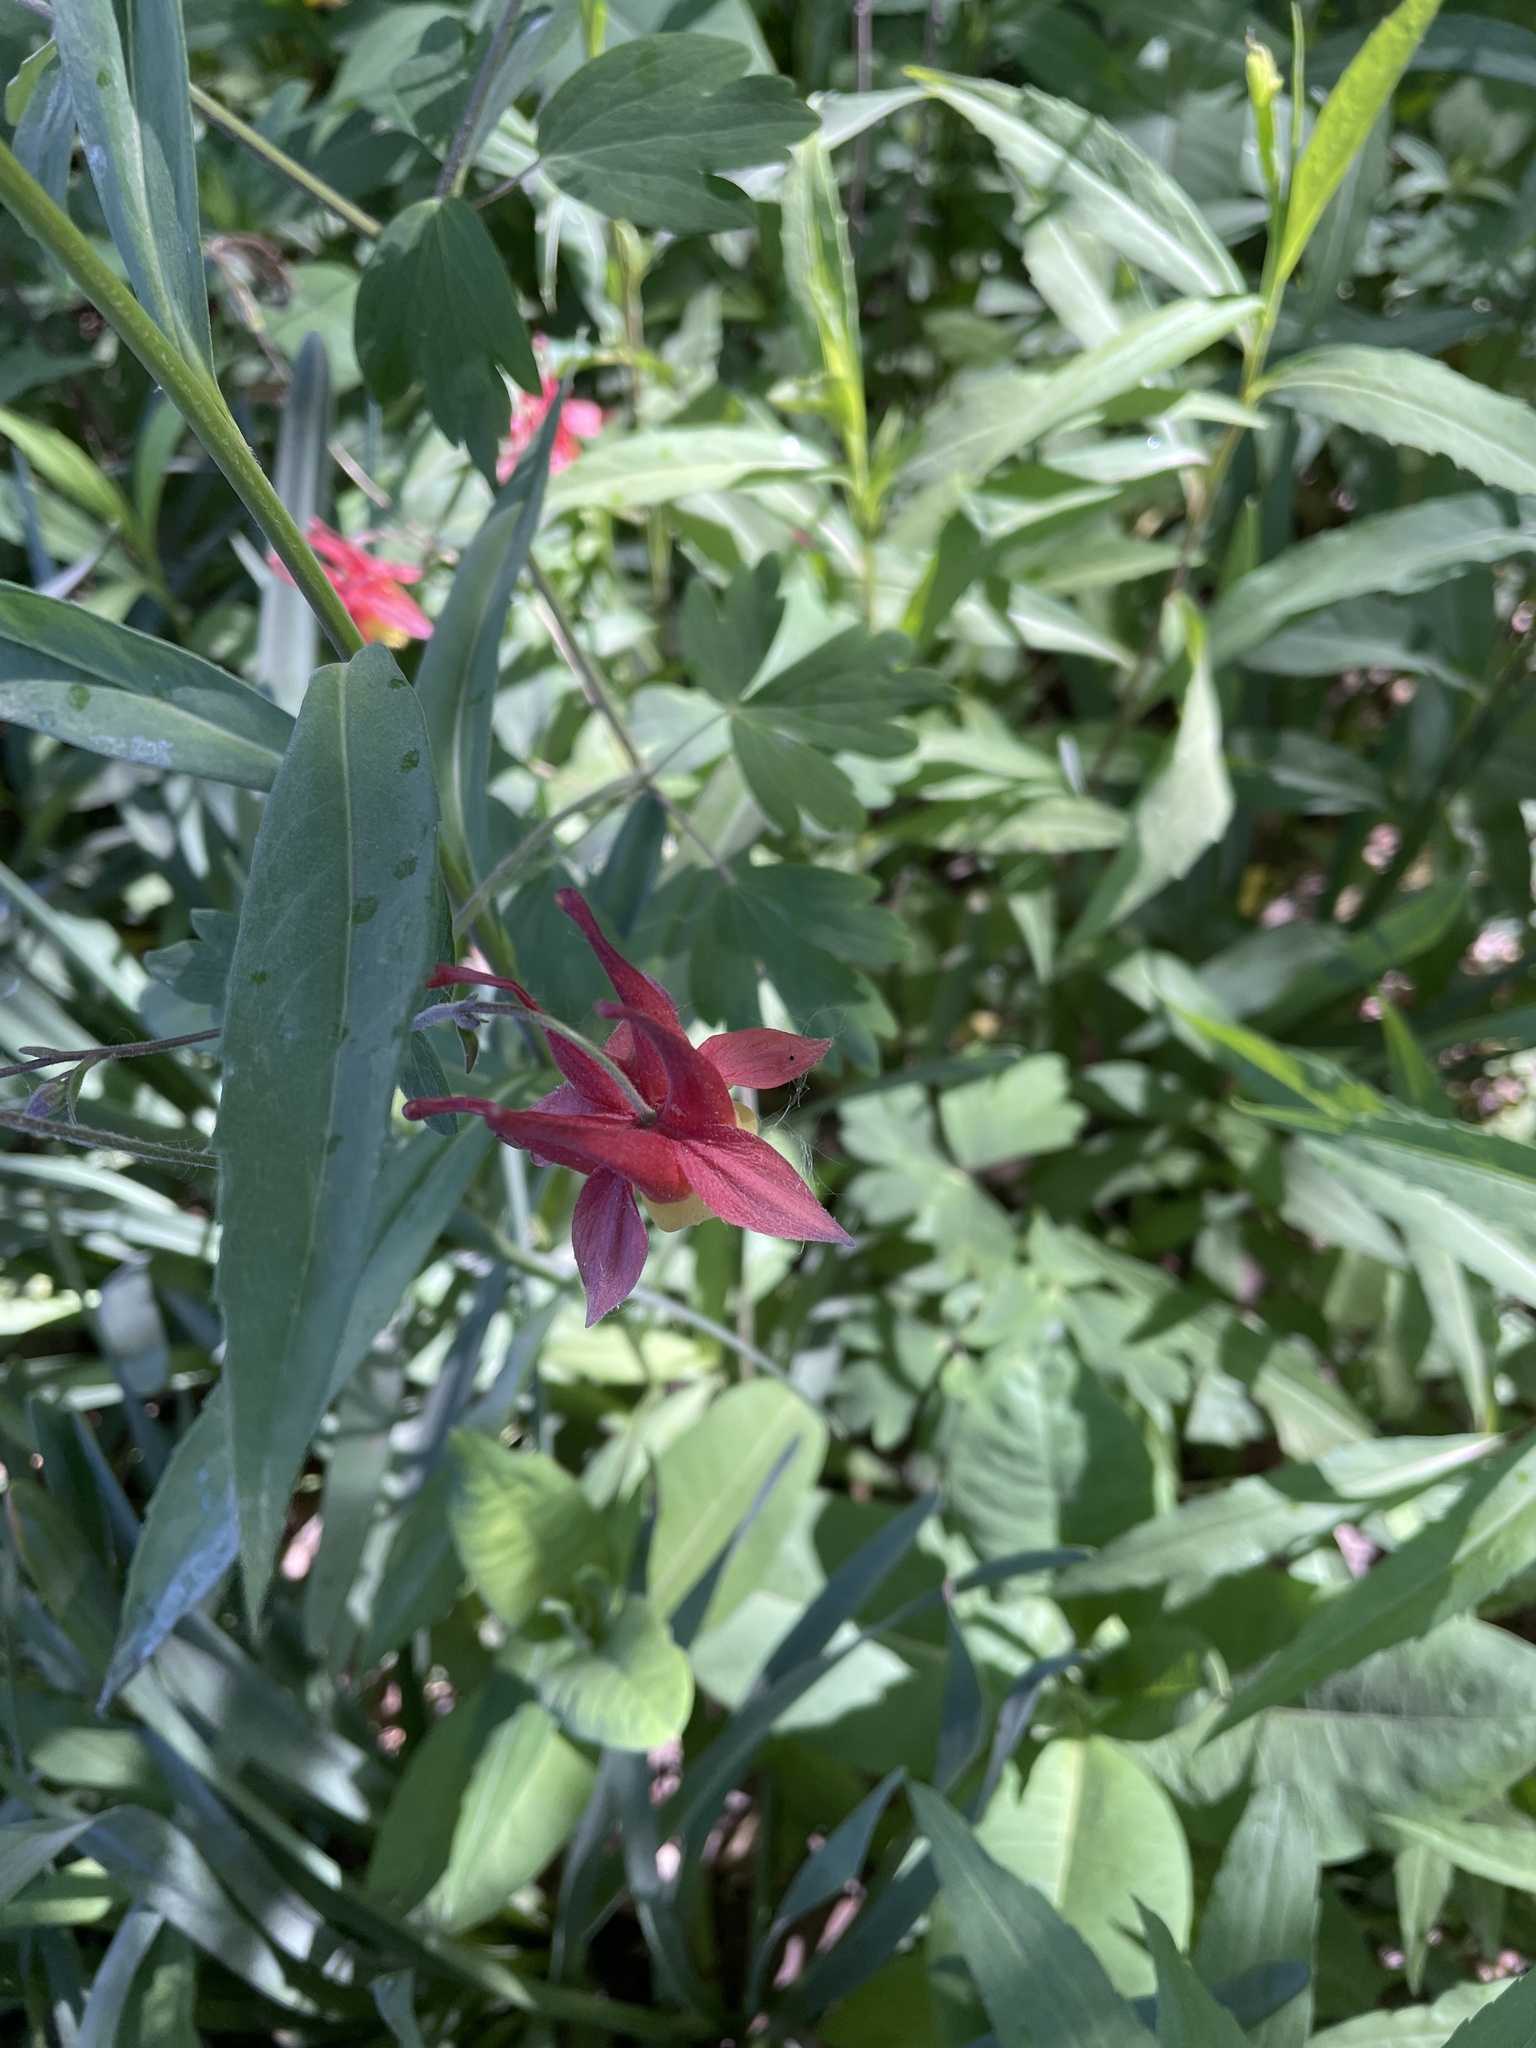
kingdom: Plantae
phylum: Tracheophyta
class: Magnoliopsida
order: Ranunculales
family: Ranunculaceae
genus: Aquilegia
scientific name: Aquilegia canadensis
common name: American columbine
